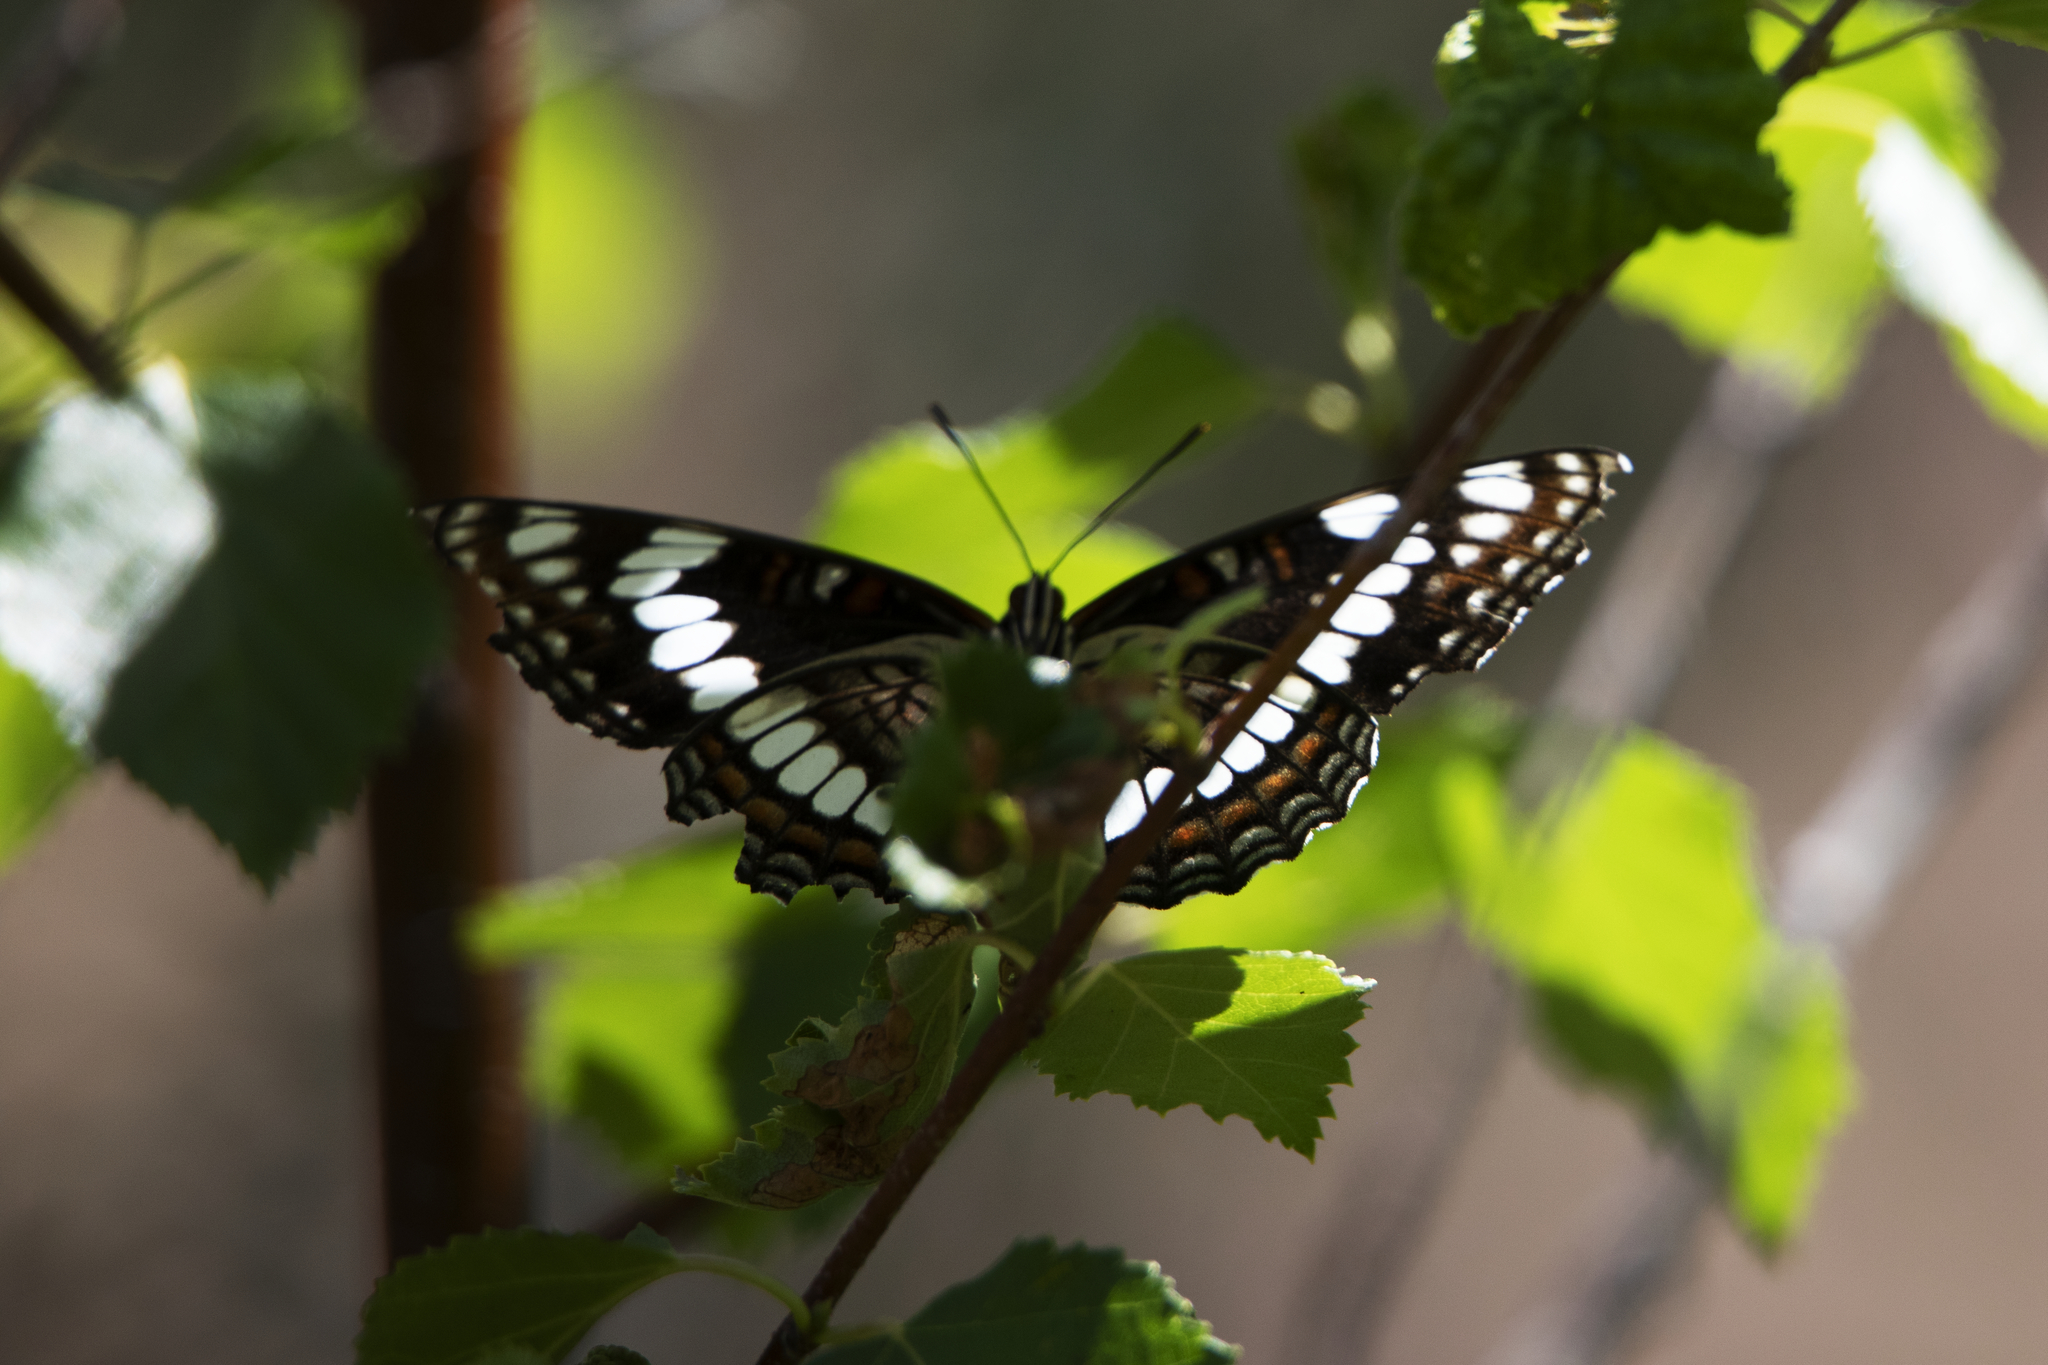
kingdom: Animalia
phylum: Arthropoda
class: Insecta
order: Lepidoptera
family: Nymphalidae
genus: Limenitis
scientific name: Limenitis weidemeyerii
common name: Weidemeyer's admiral
